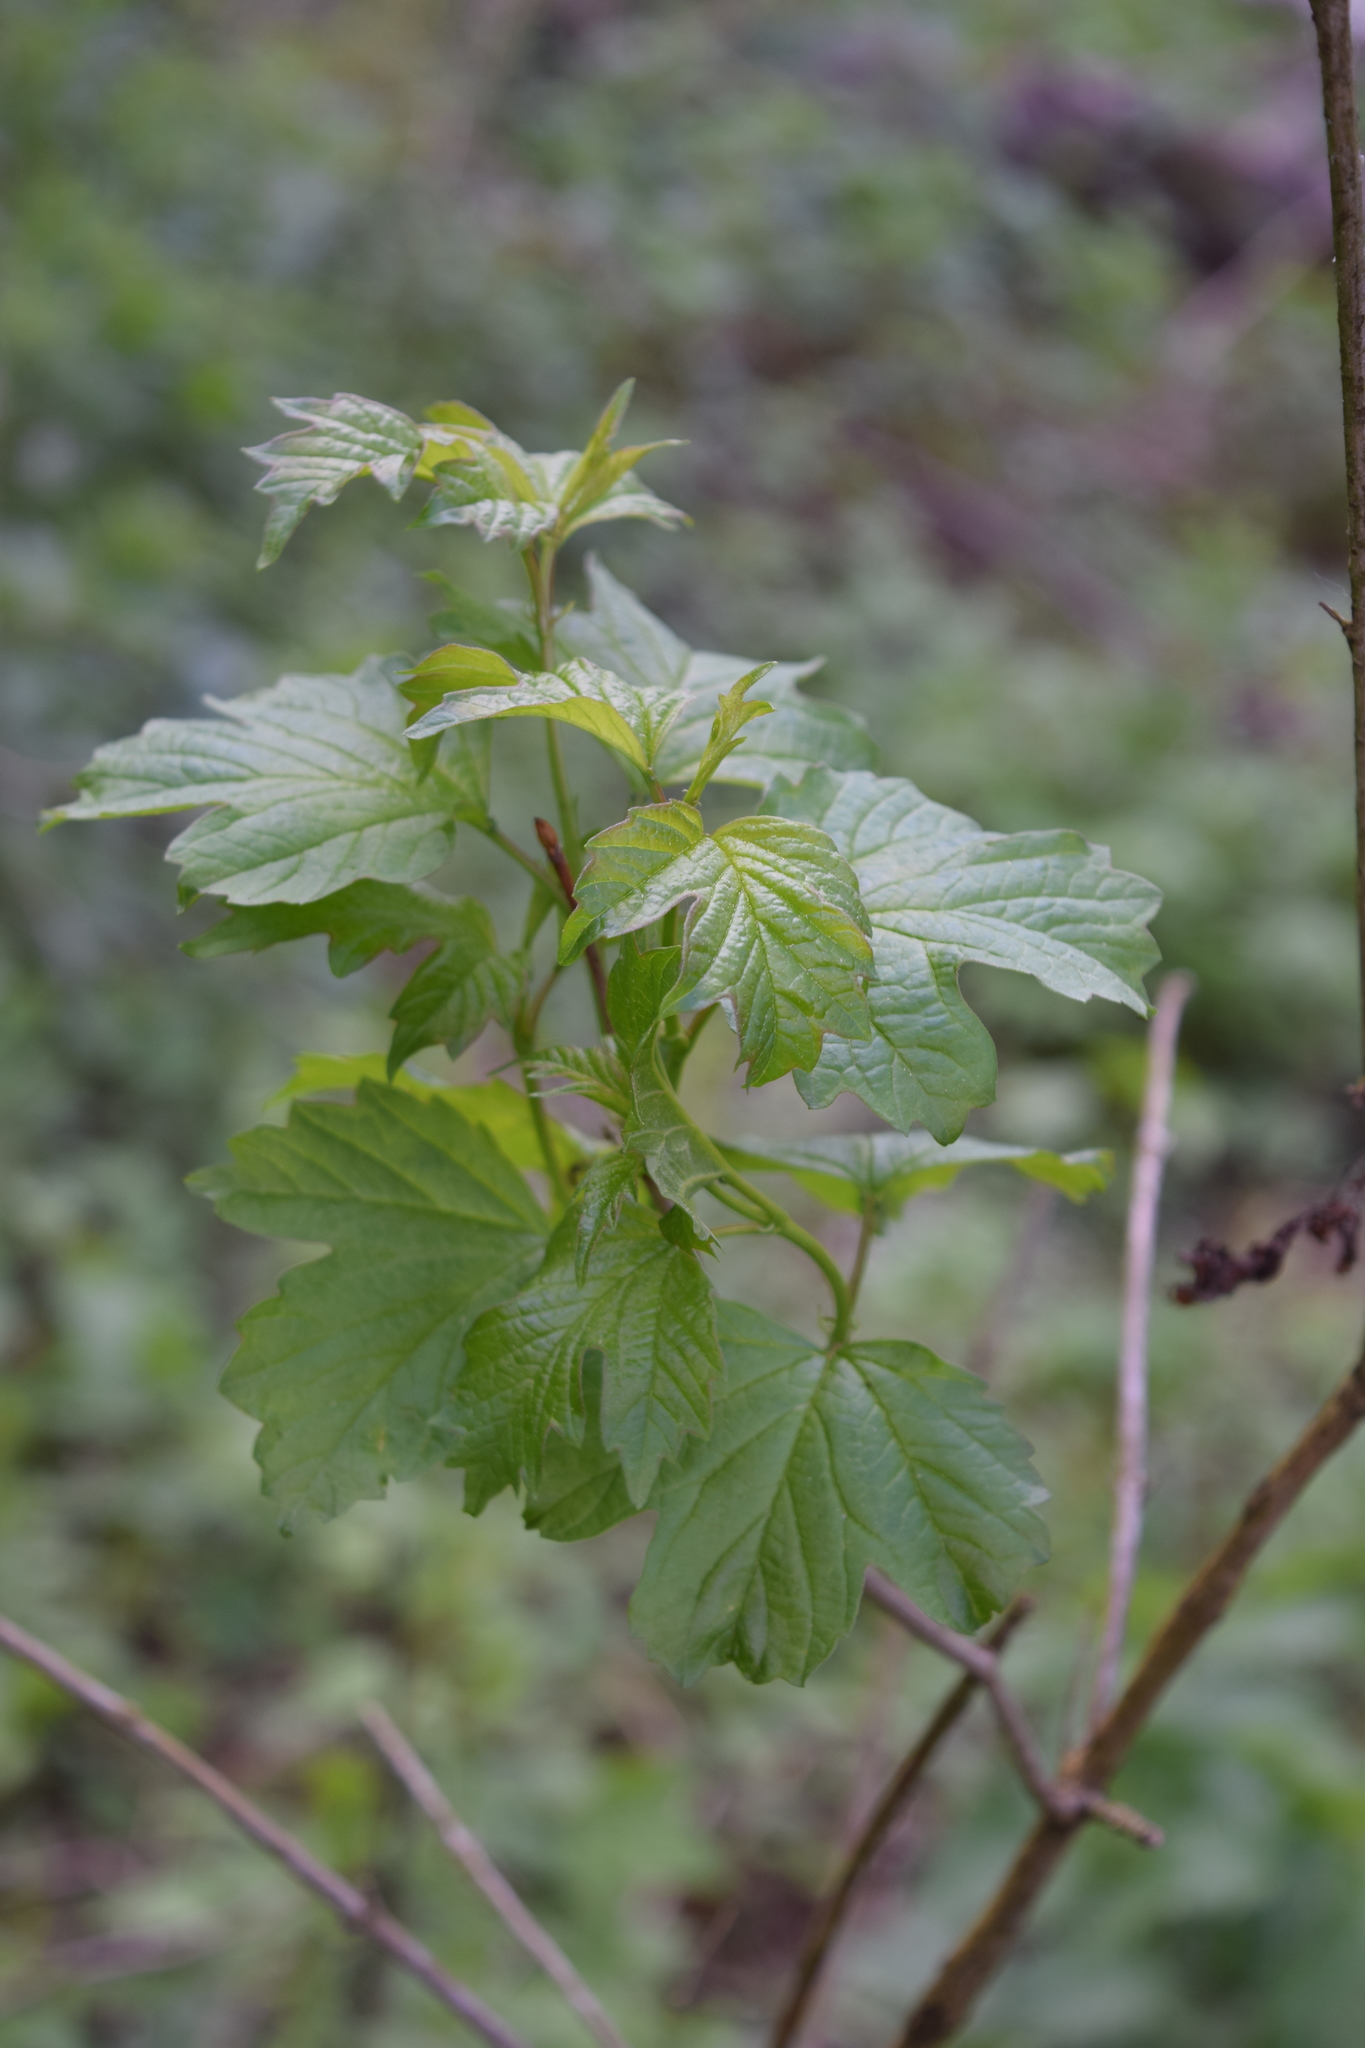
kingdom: Plantae
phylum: Tracheophyta
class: Magnoliopsida
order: Dipsacales
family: Viburnaceae
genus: Viburnum
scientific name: Viburnum opulus
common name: Guelder-rose
